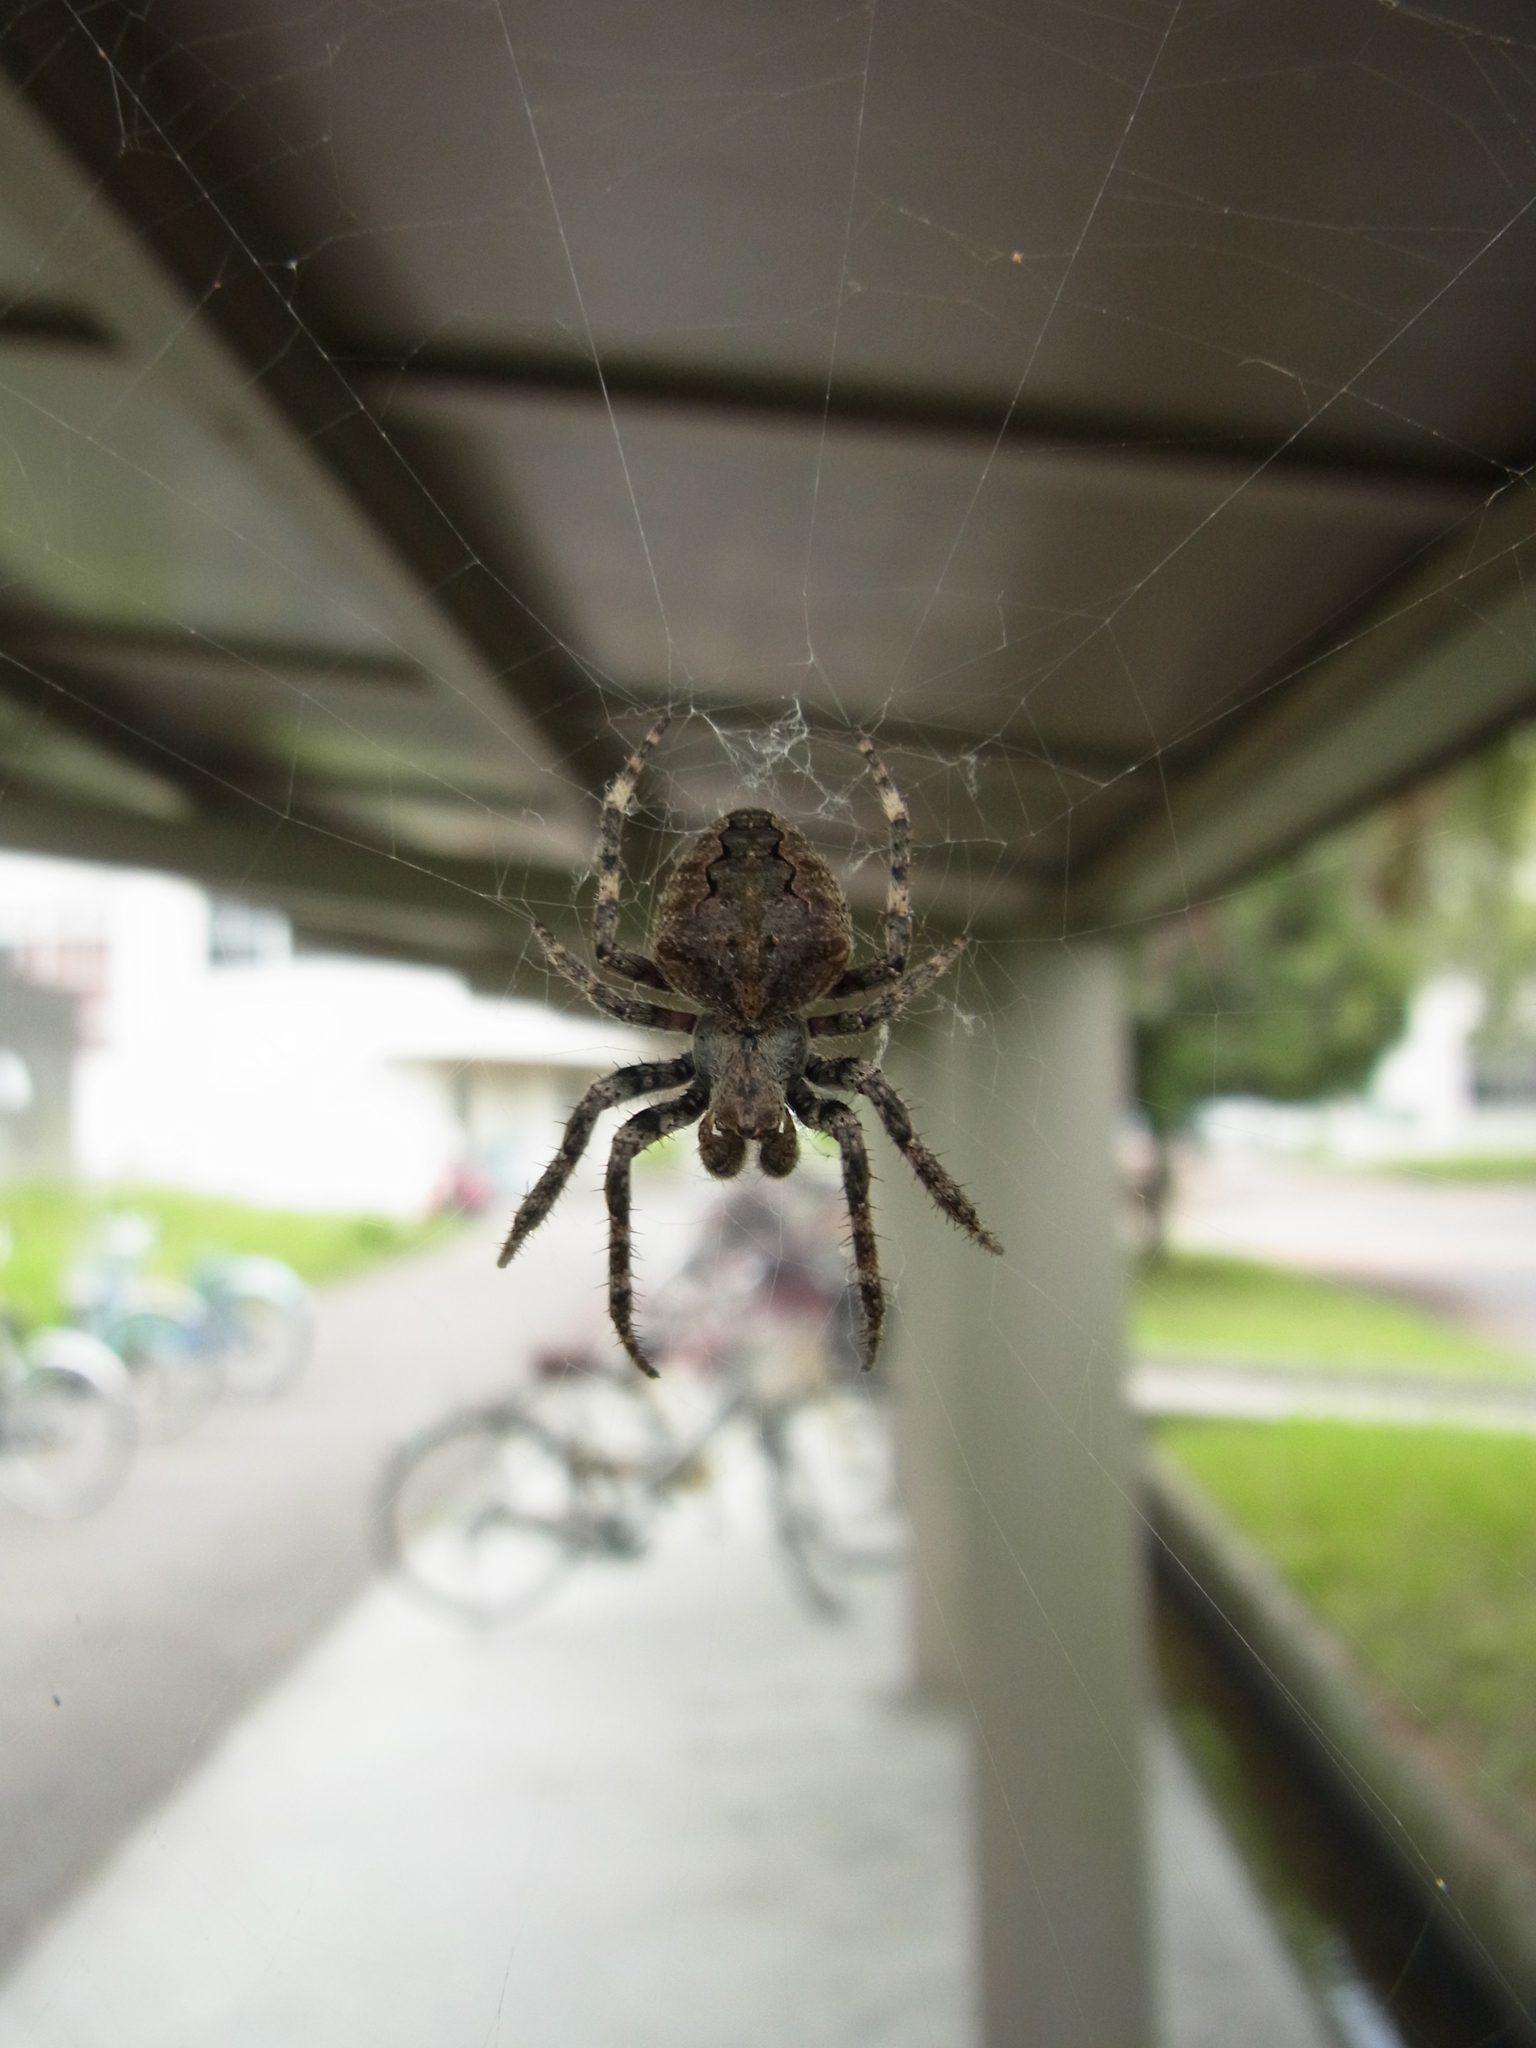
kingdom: Animalia
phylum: Arthropoda
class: Arachnida
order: Araneae
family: Araneidae
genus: Araneus
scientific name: Araneus ventricosus
